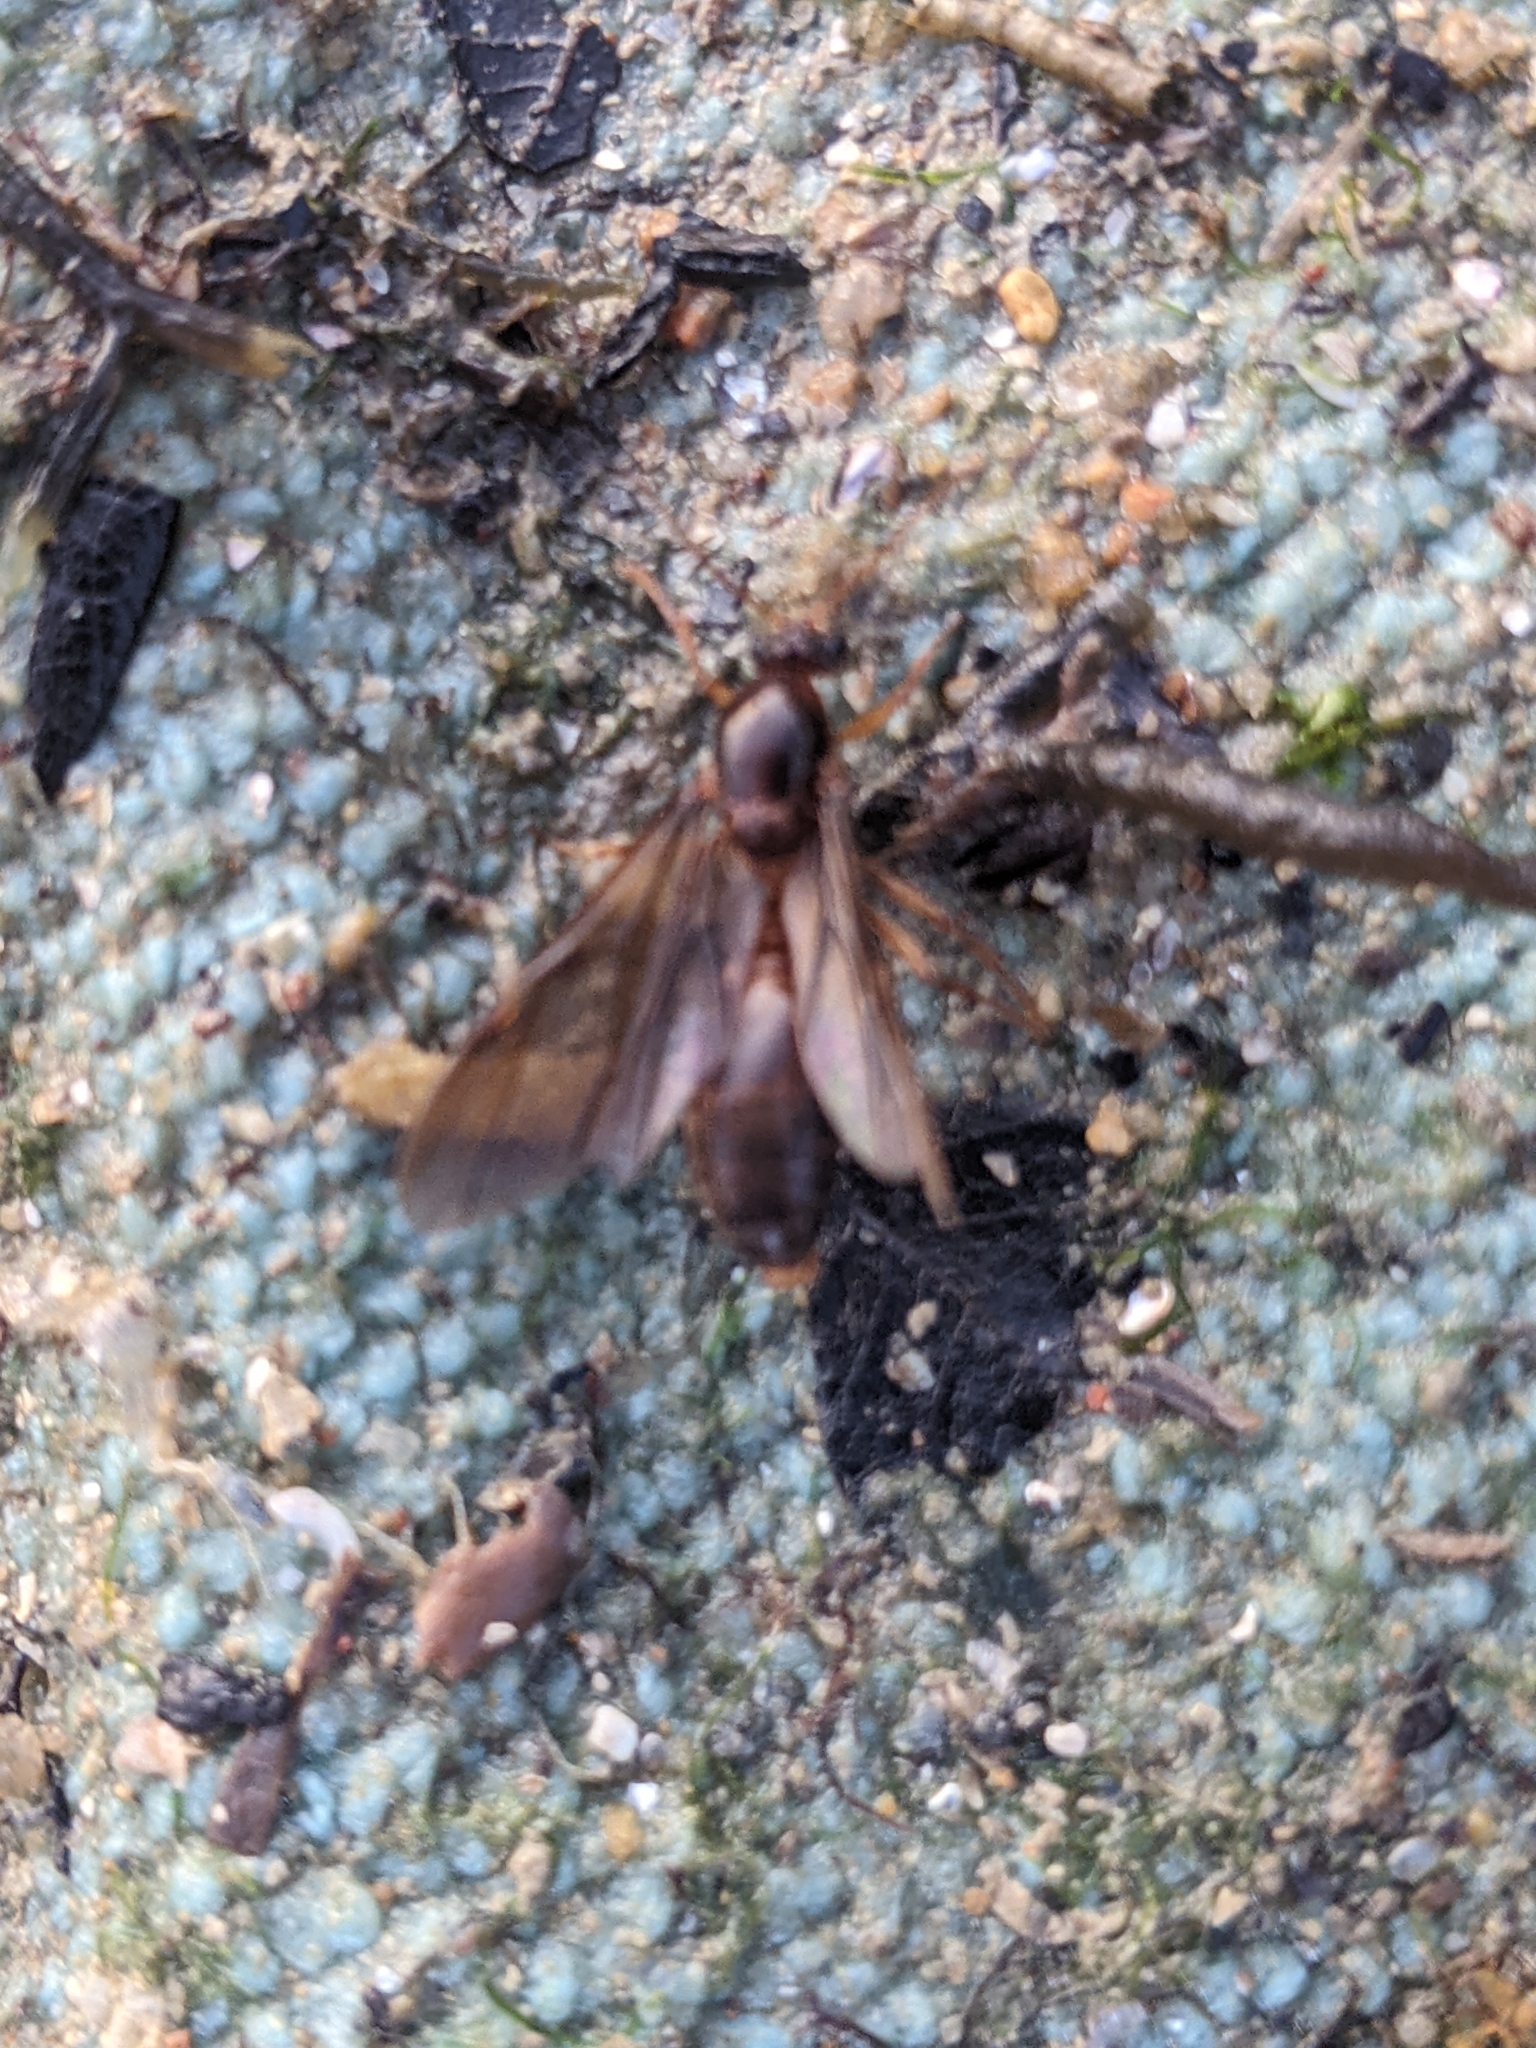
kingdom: Animalia
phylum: Arthropoda
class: Insecta
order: Hymenoptera
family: Formicidae
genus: Carebara
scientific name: Carebara affinis
